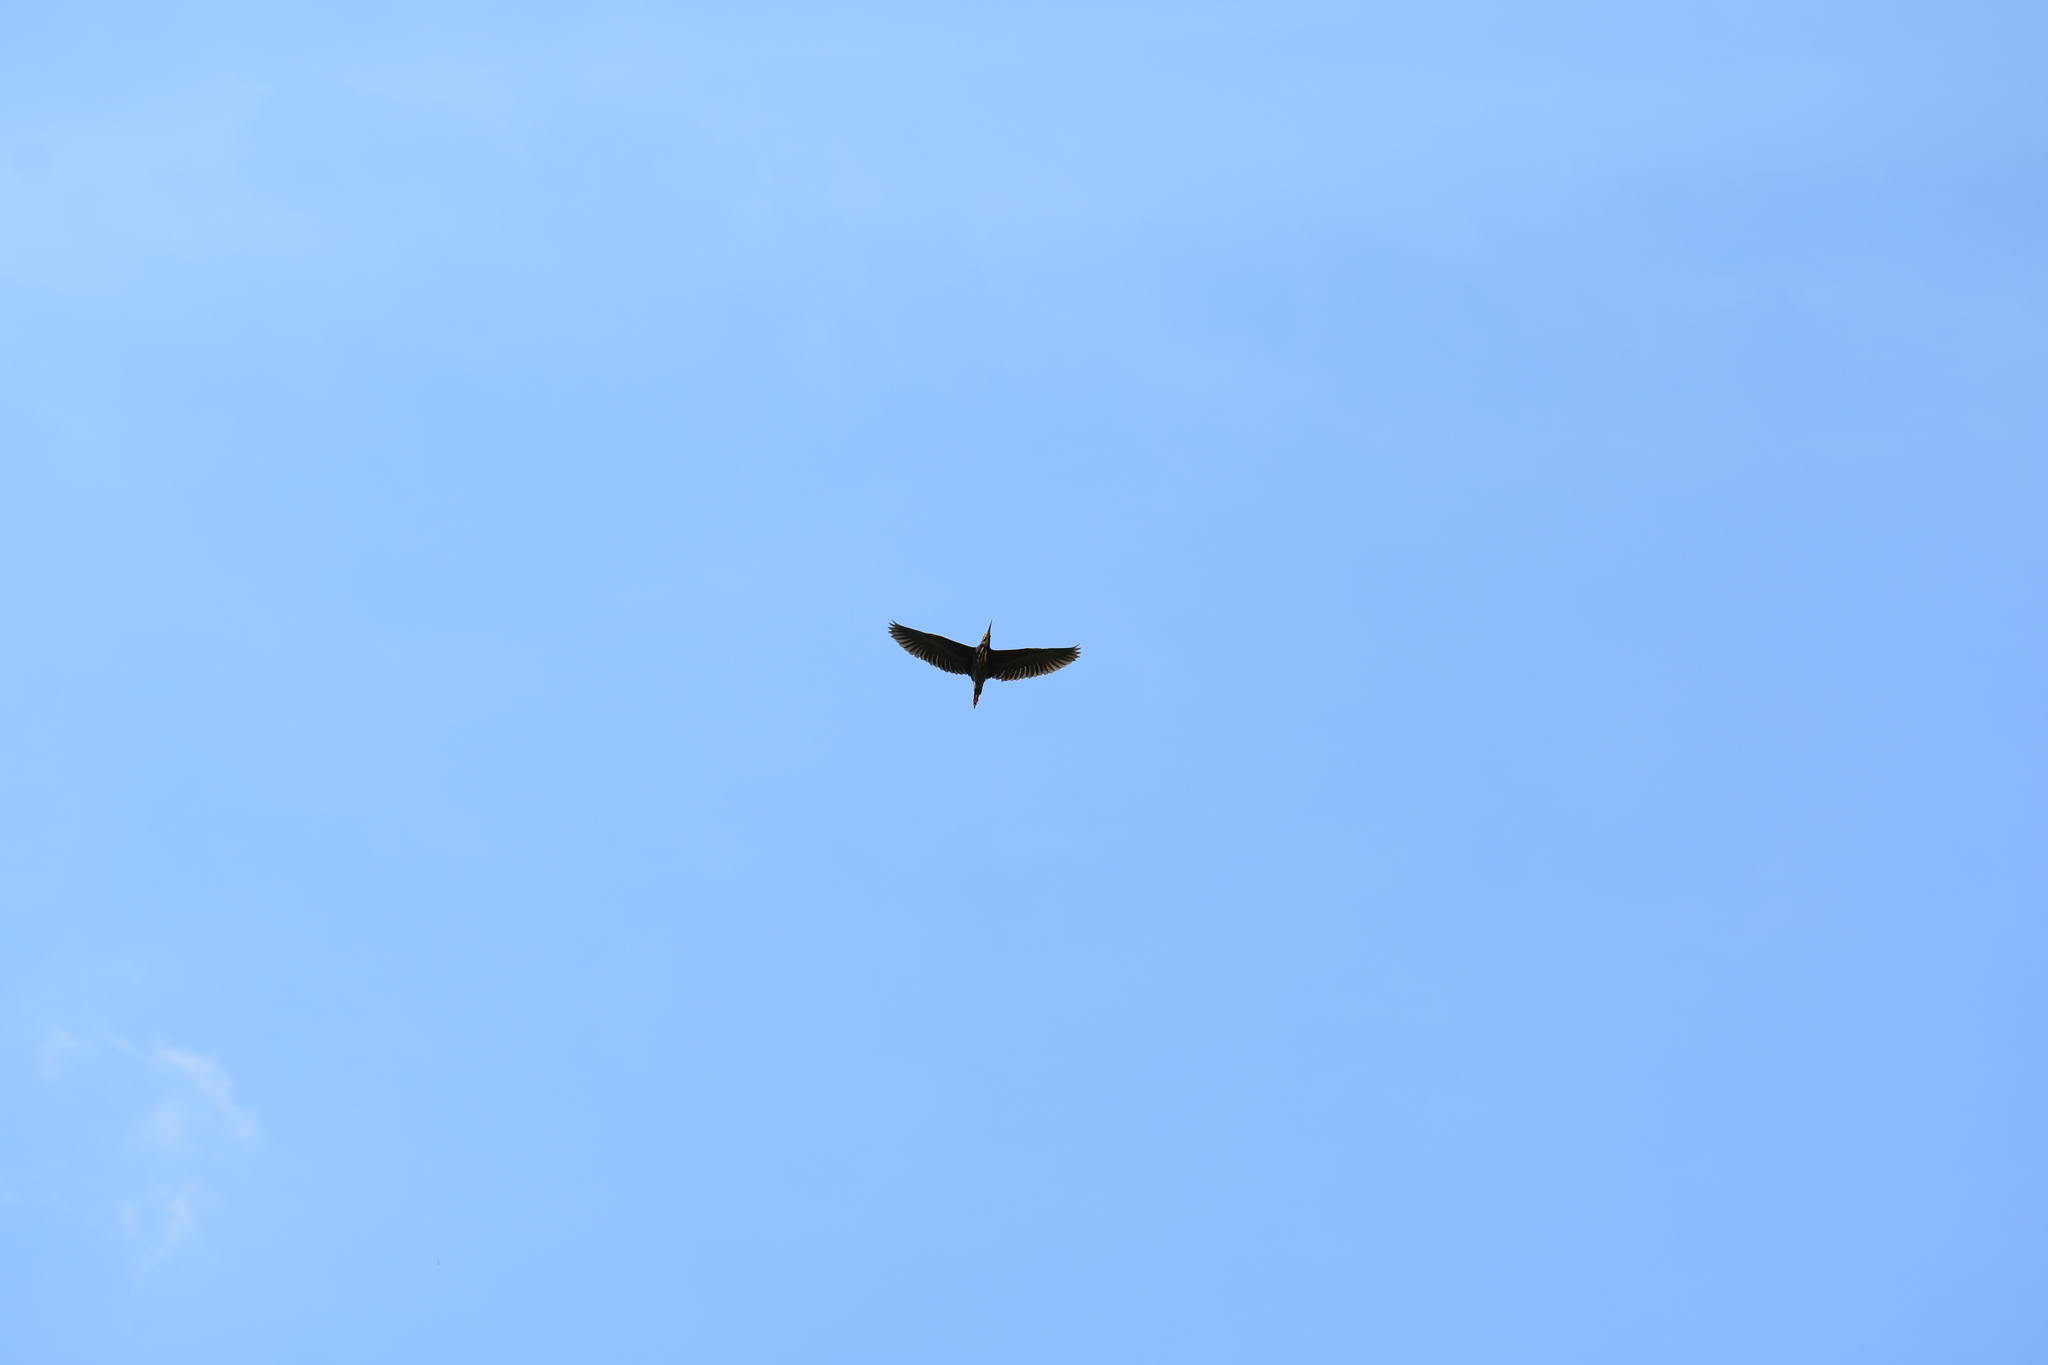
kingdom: Animalia
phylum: Chordata
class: Aves
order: Pelecaniformes
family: Ardeidae
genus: Butorides
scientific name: Butorides virescens
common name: Green heron
